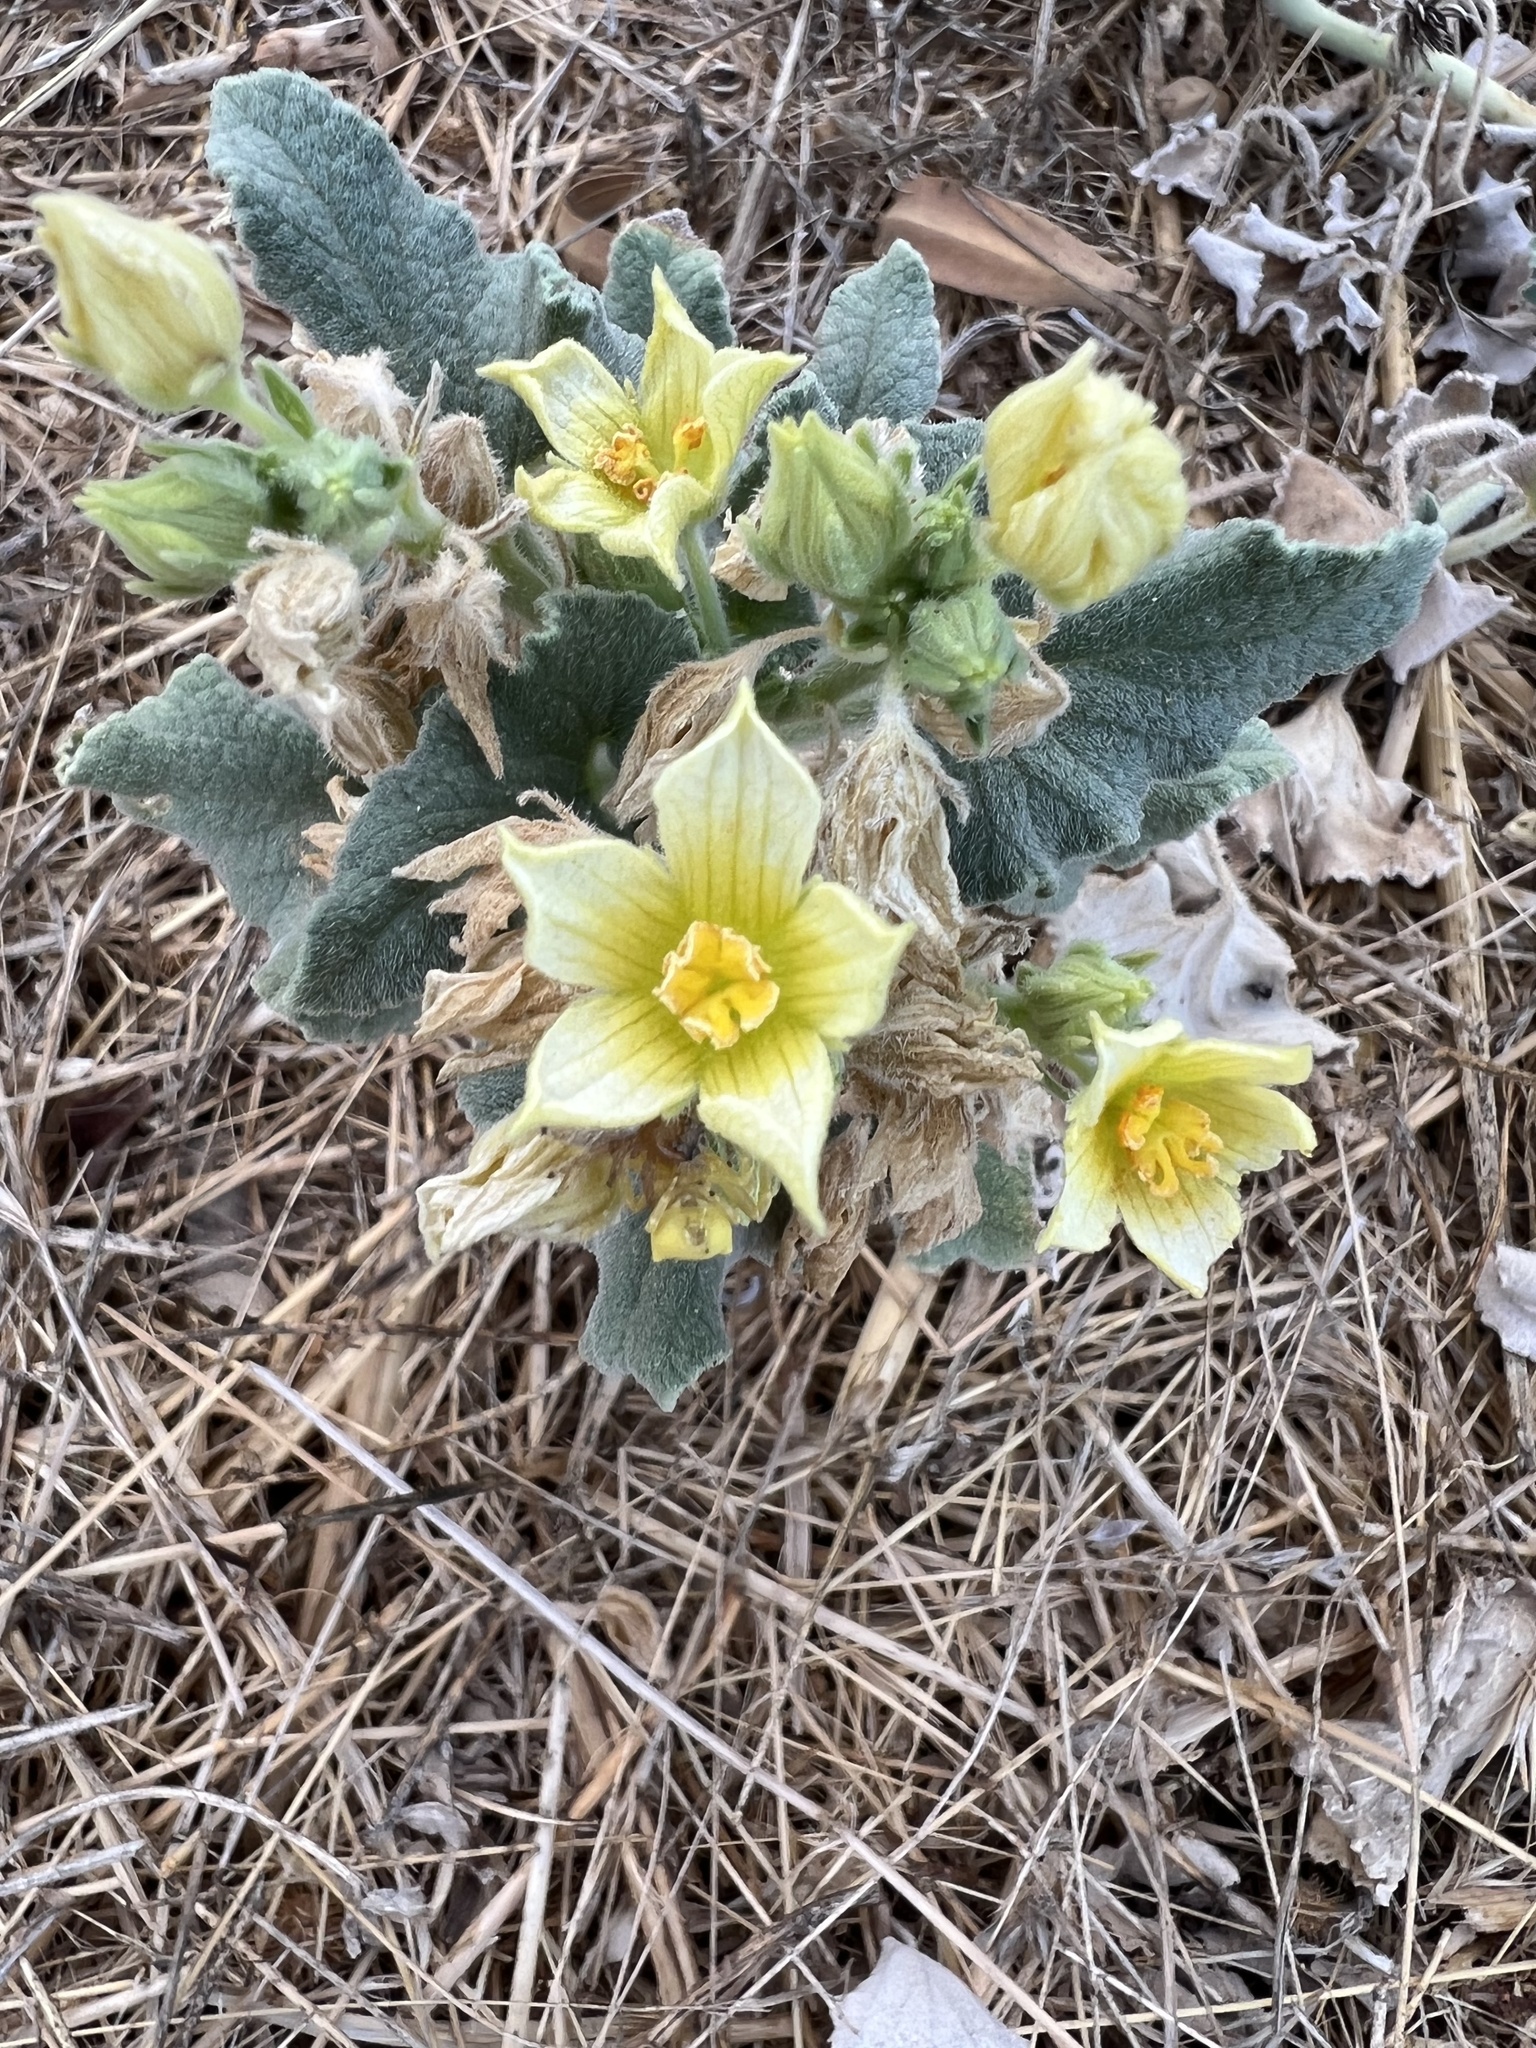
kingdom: Plantae
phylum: Tracheophyta
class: Magnoliopsida
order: Cucurbitales
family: Cucurbitaceae
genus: Ecballium
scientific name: Ecballium elaterium
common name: Squirting cucumber
